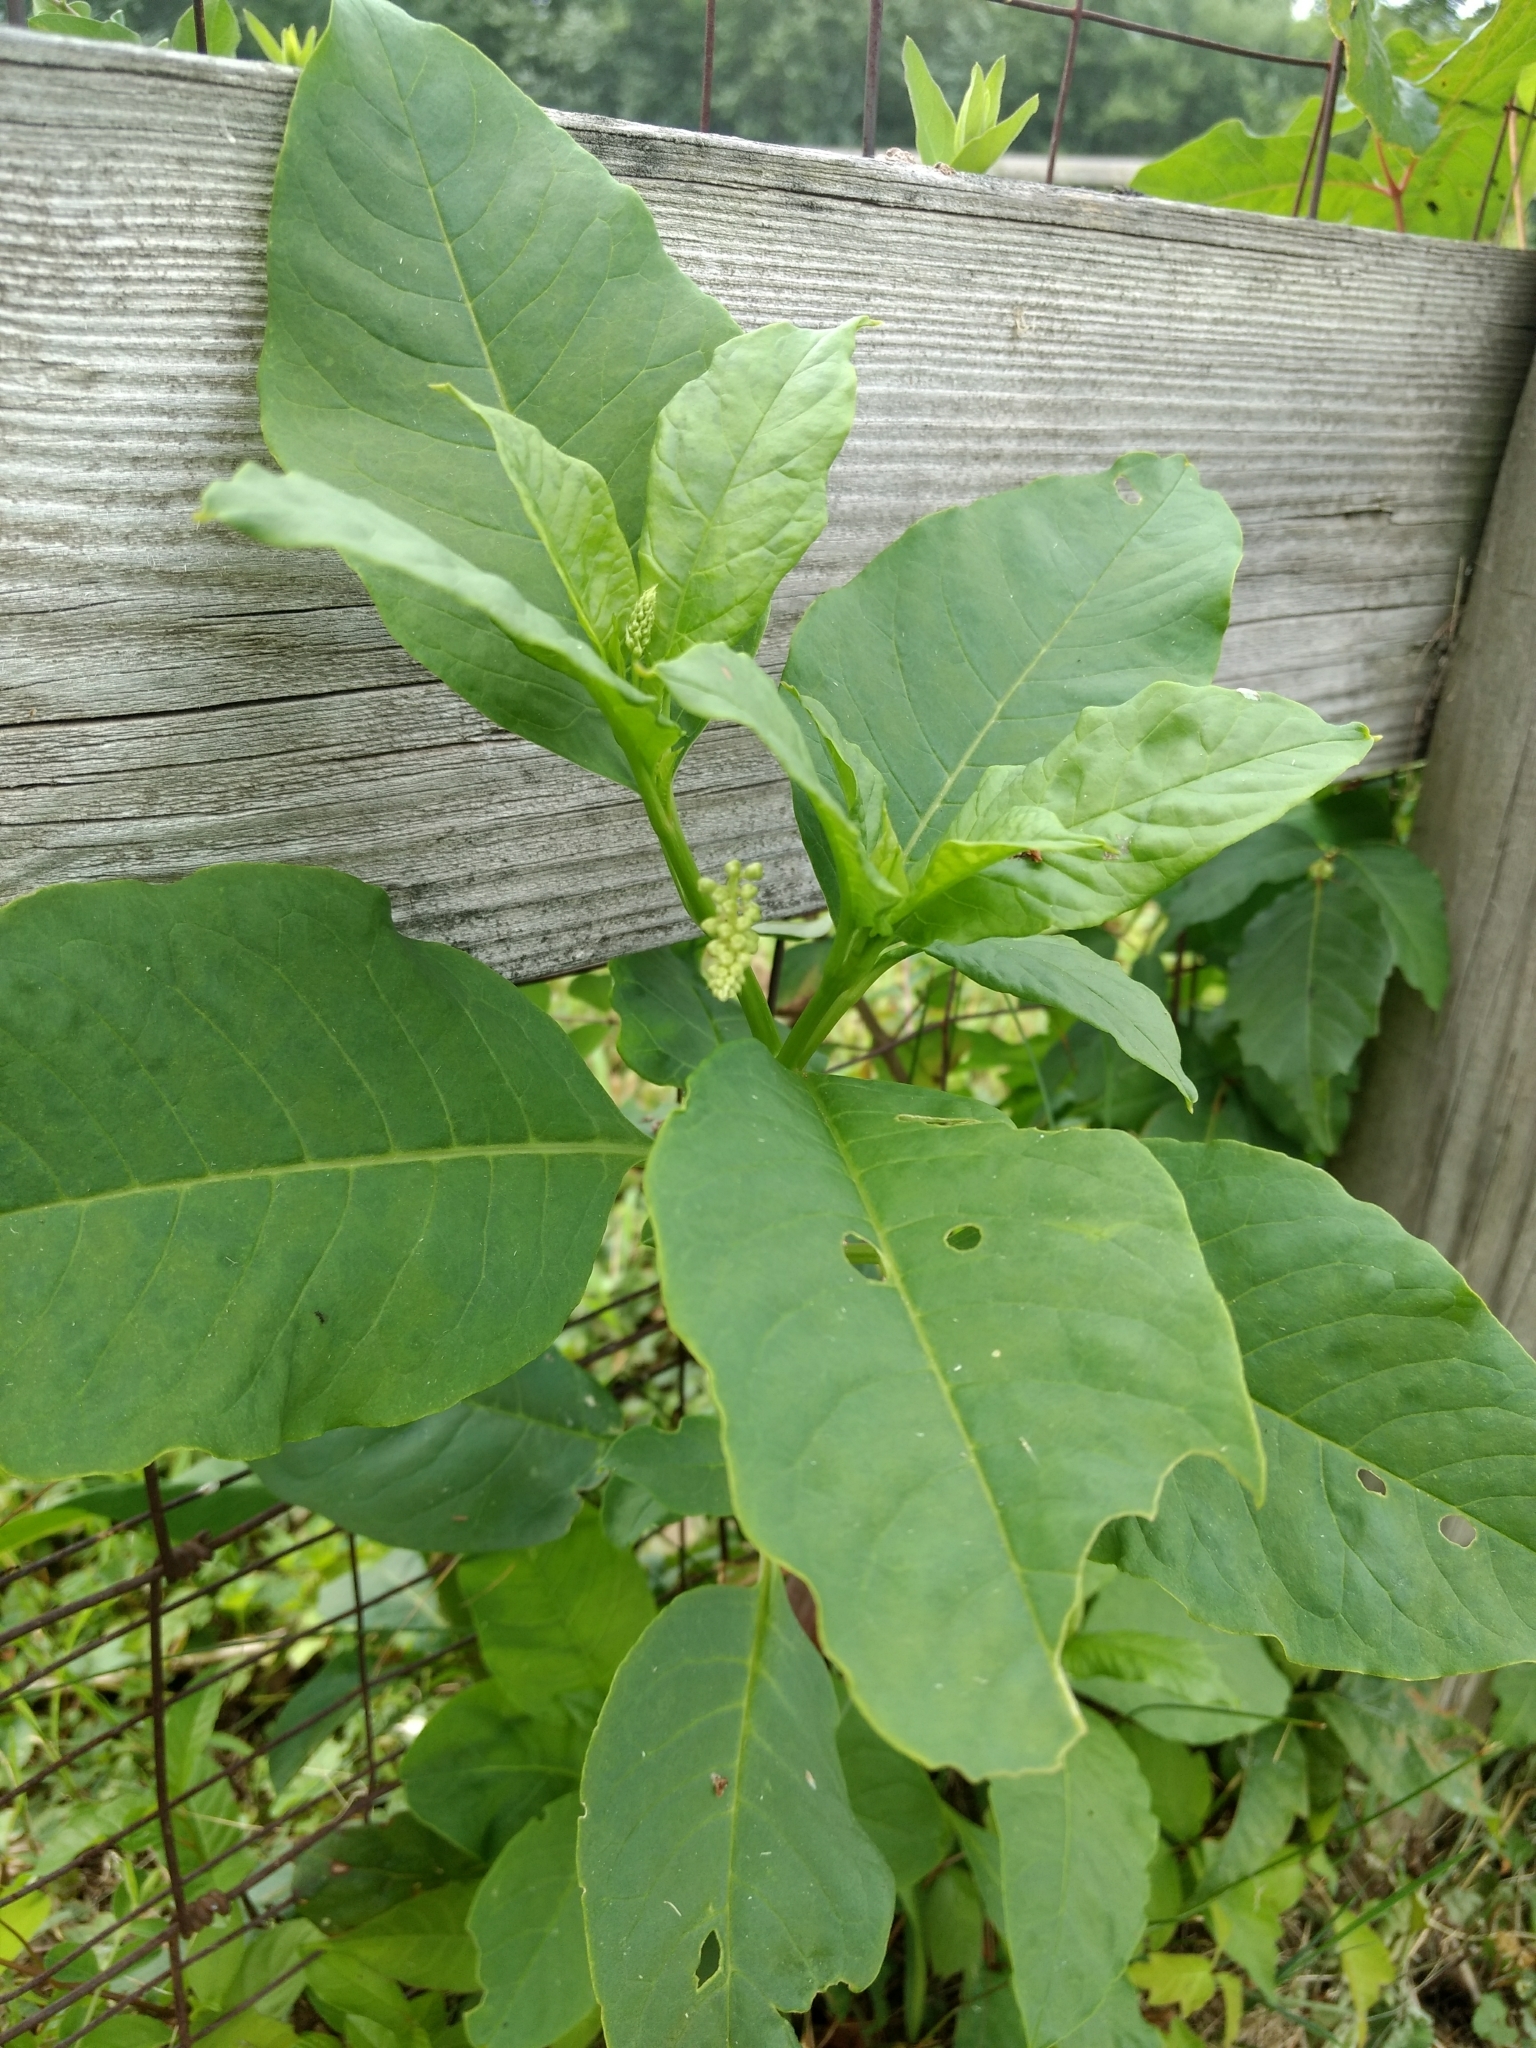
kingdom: Plantae
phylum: Tracheophyta
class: Magnoliopsida
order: Caryophyllales
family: Phytolaccaceae
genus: Phytolacca
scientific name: Phytolacca americana
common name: American pokeweed
